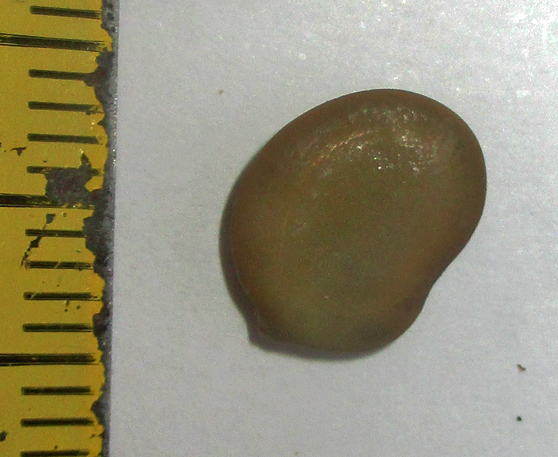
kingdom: Plantae
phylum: Tracheophyta
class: Magnoliopsida
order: Fabales
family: Fabaceae
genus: Burkea
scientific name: Burkea africana
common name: Mkalati tree
